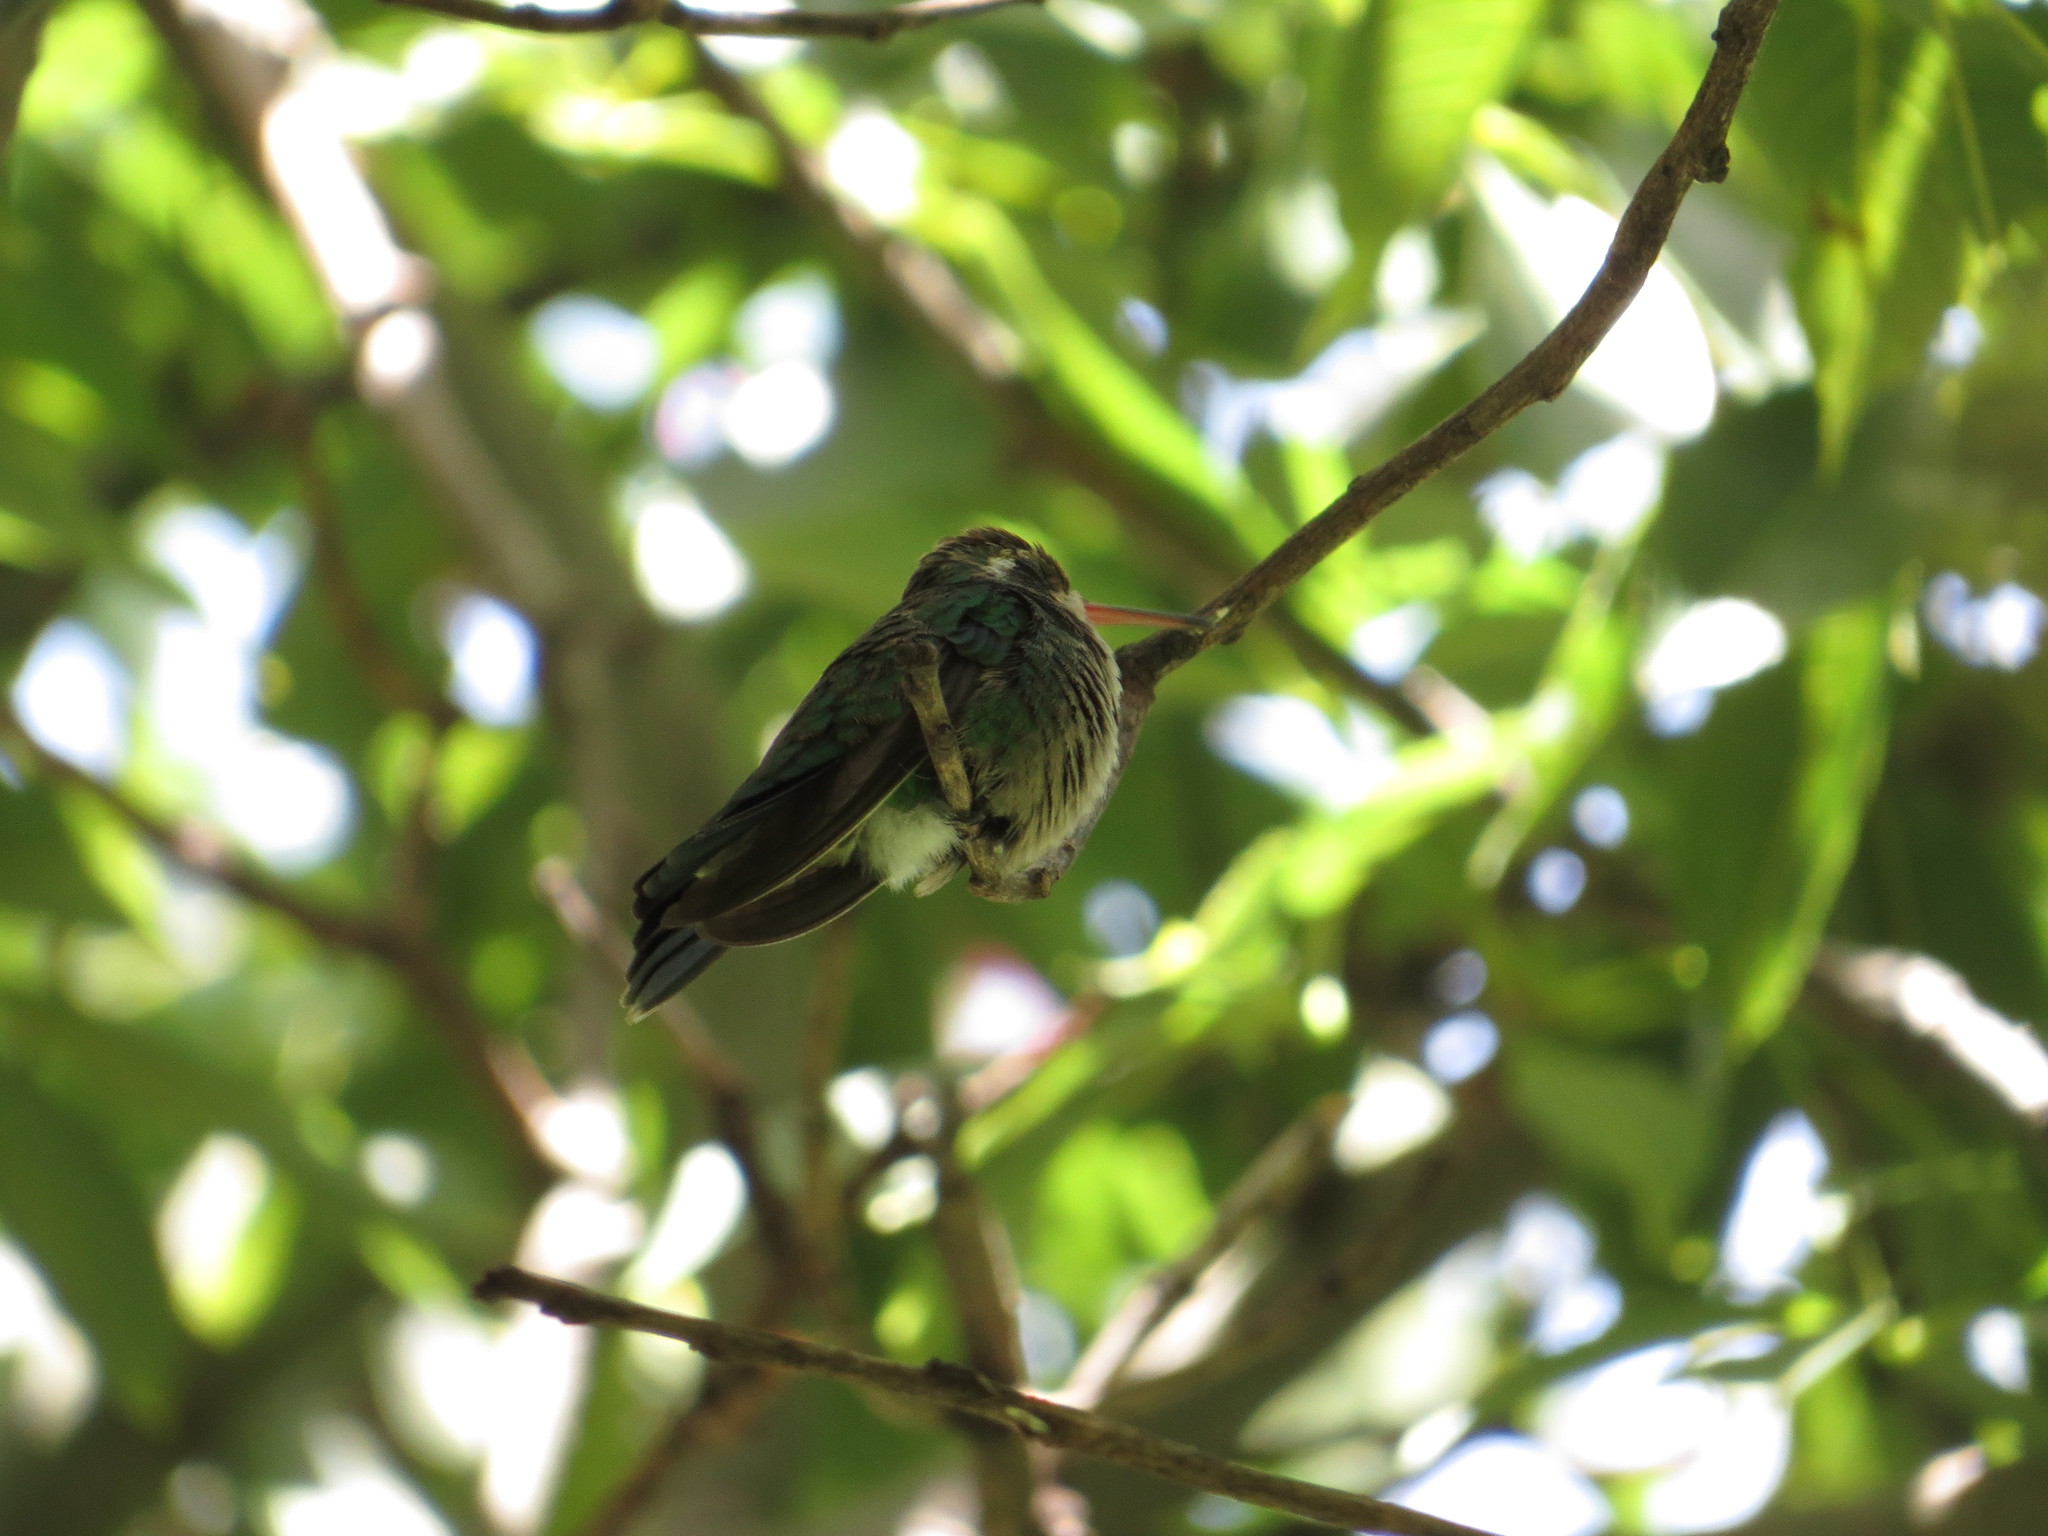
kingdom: Animalia
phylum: Chordata
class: Aves
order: Apodiformes
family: Trochilidae
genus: Chlorostilbon
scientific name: Chlorostilbon lucidus
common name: Glittering-bellied emerald
